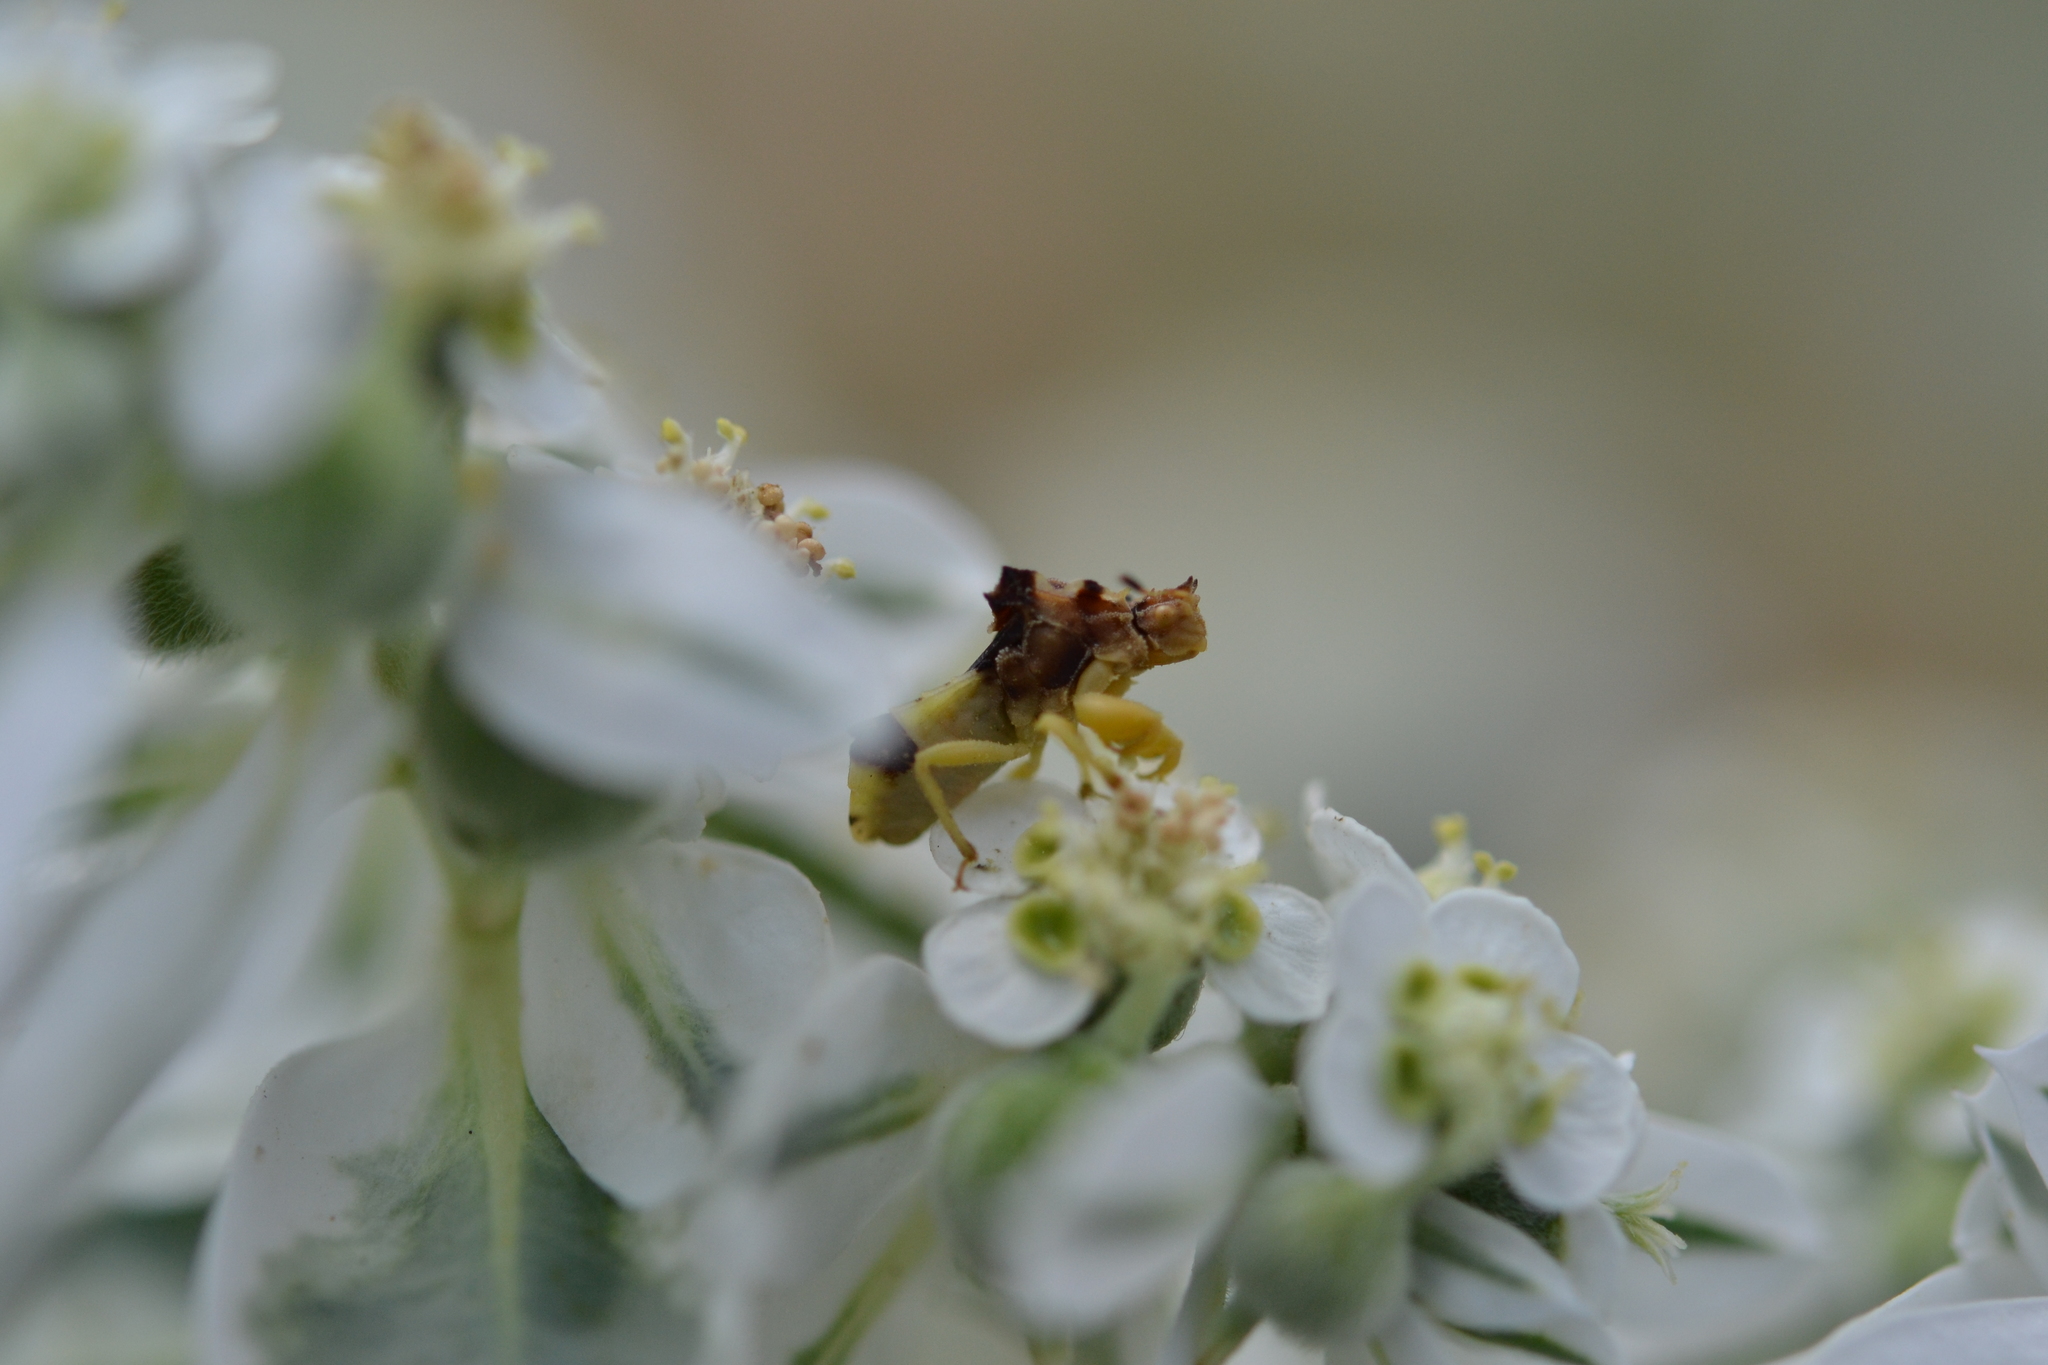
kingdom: Animalia
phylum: Arthropoda
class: Insecta
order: Hemiptera
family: Reduviidae
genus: Phymata
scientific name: Phymata americana
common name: Jagged ambush bug
